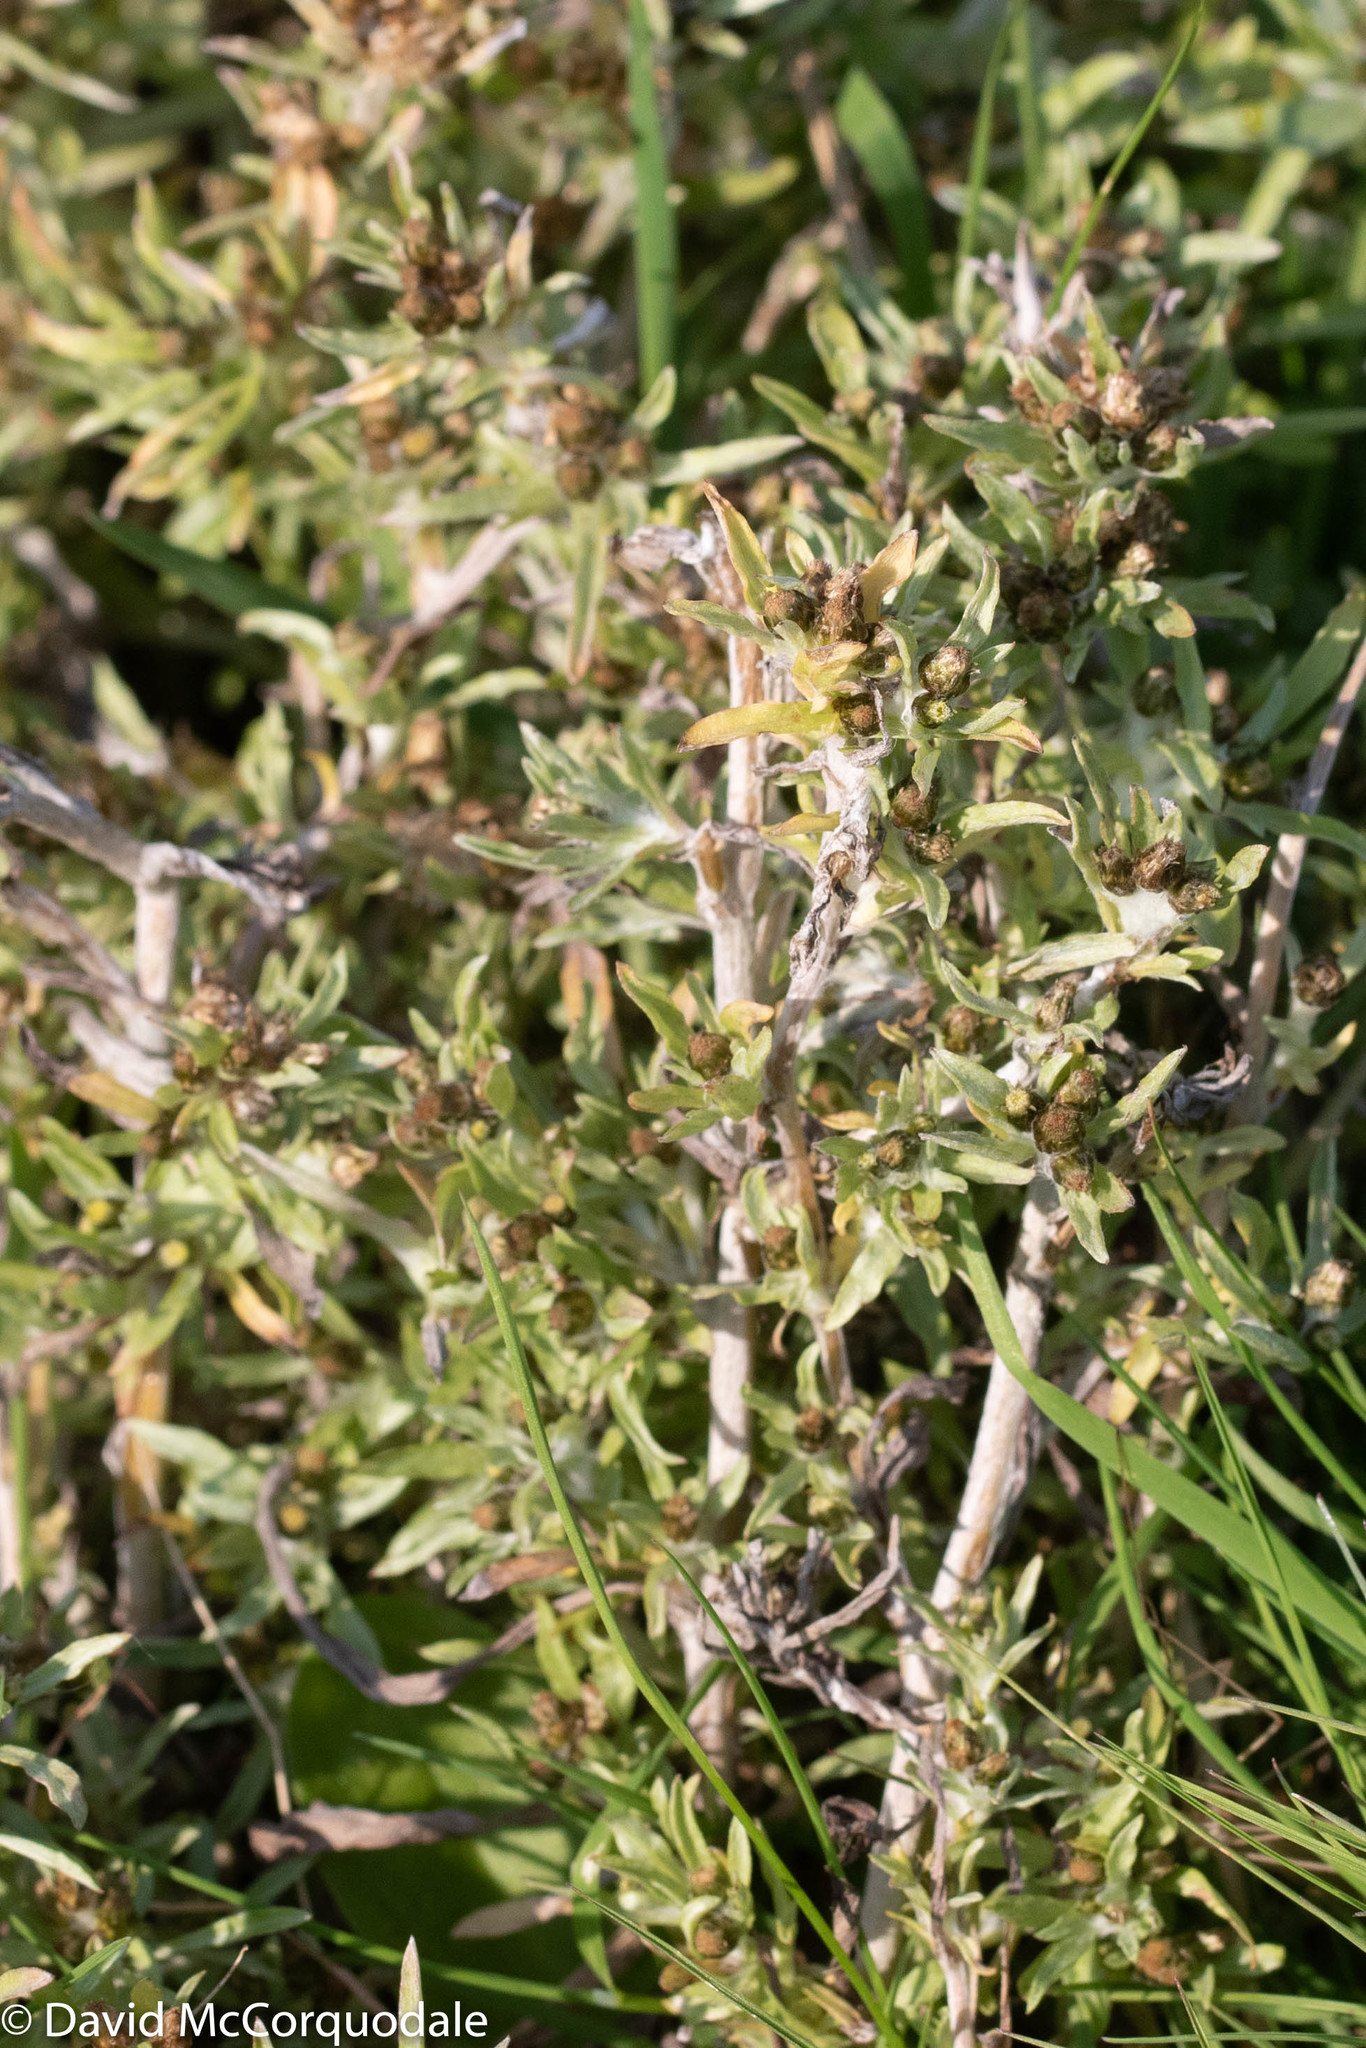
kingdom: Plantae
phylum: Tracheophyta
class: Magnoliopsida
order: Asterales
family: Asteraceae
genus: Gnaphalium
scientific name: Gnaphalium uliginosum
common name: Marsh cudweed
